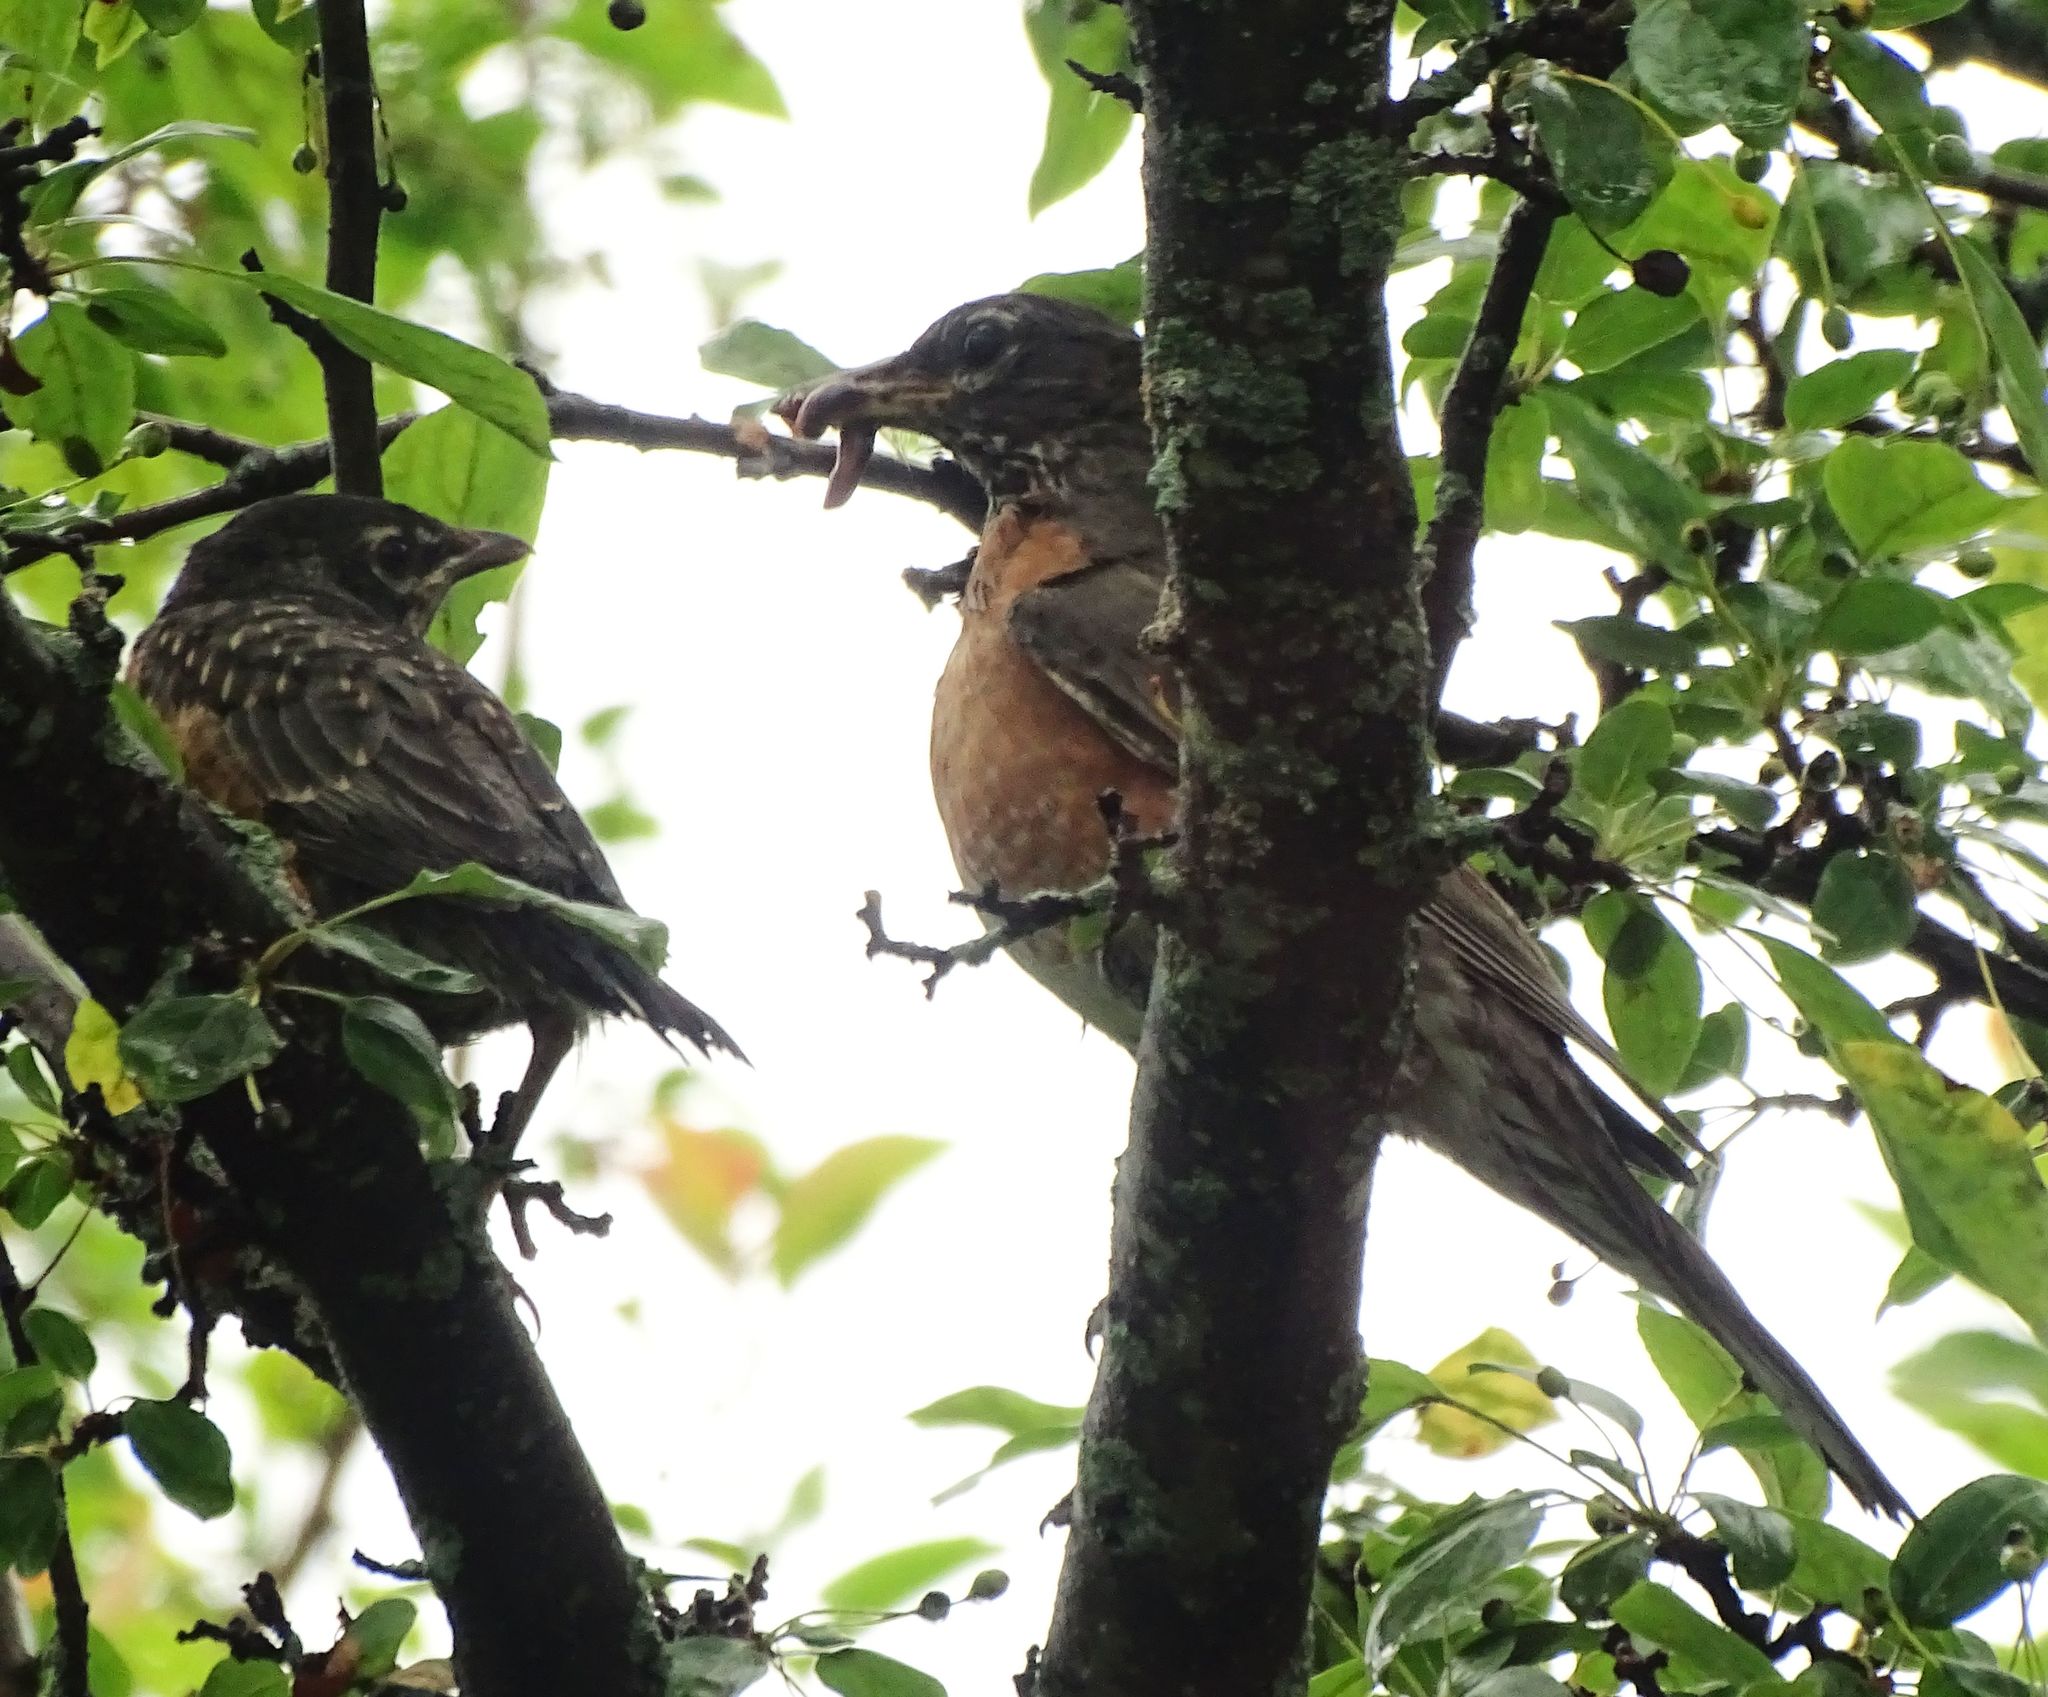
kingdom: Animalia
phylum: Chordata
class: Aves
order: Passeriformes
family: Turdidae
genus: Turdus
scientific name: Turdus migratorius
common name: American robin
